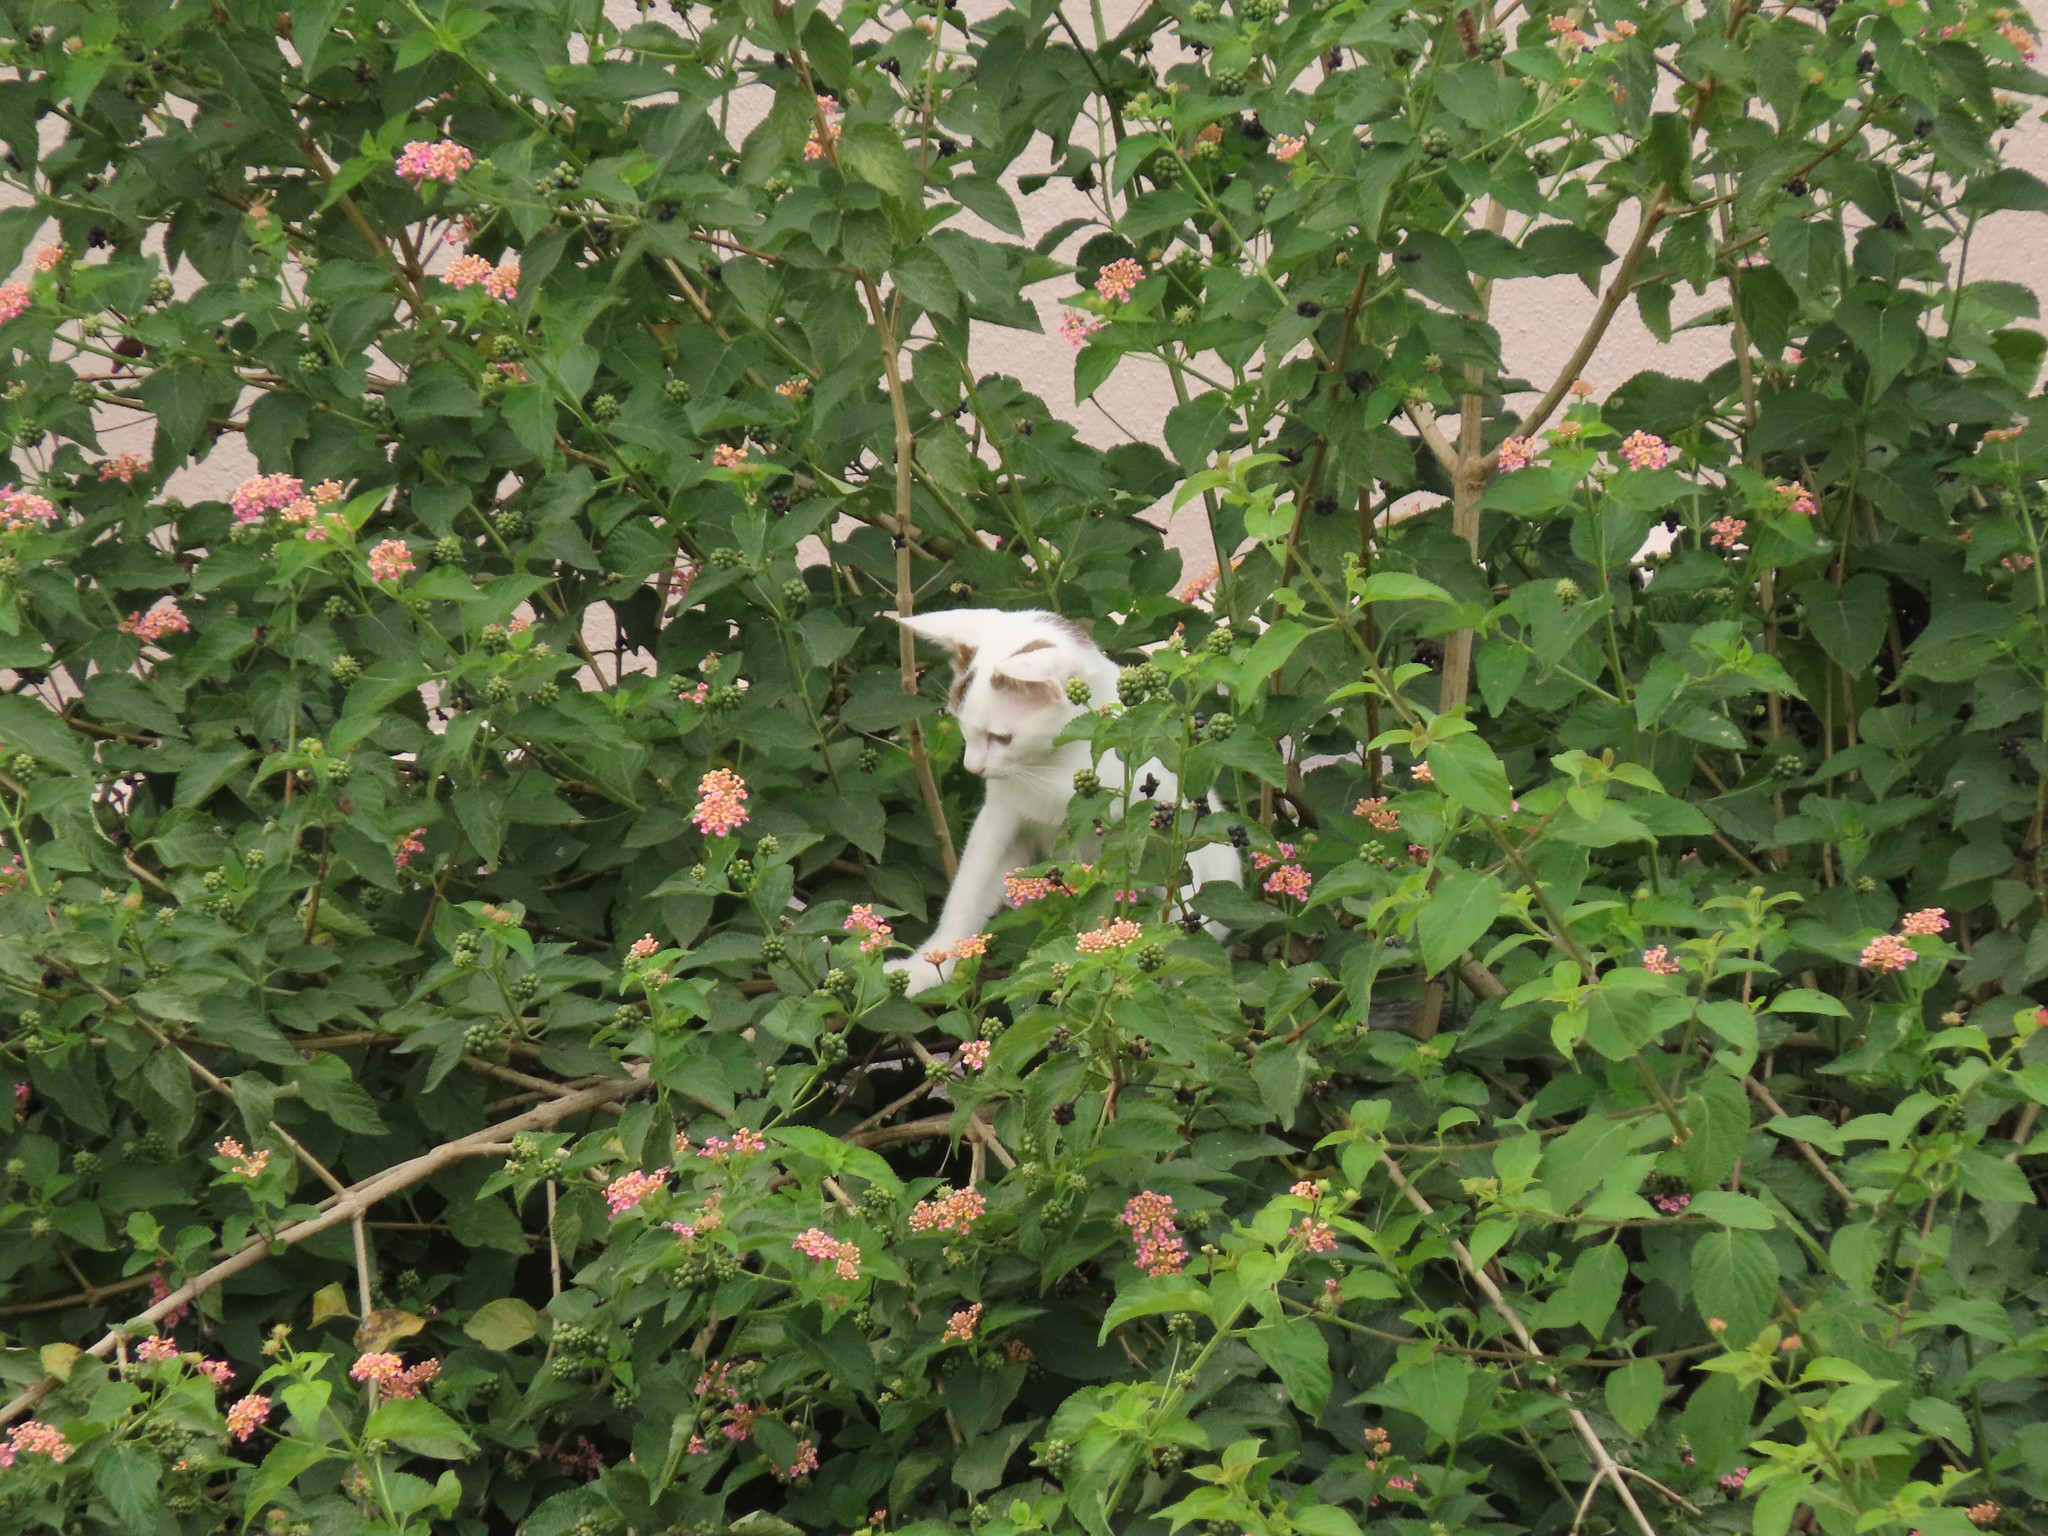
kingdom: Animalia
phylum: Chordata
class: Mammalia
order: Carnivora
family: Felidae
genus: Felis
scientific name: Felis catus
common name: Domestic cat
